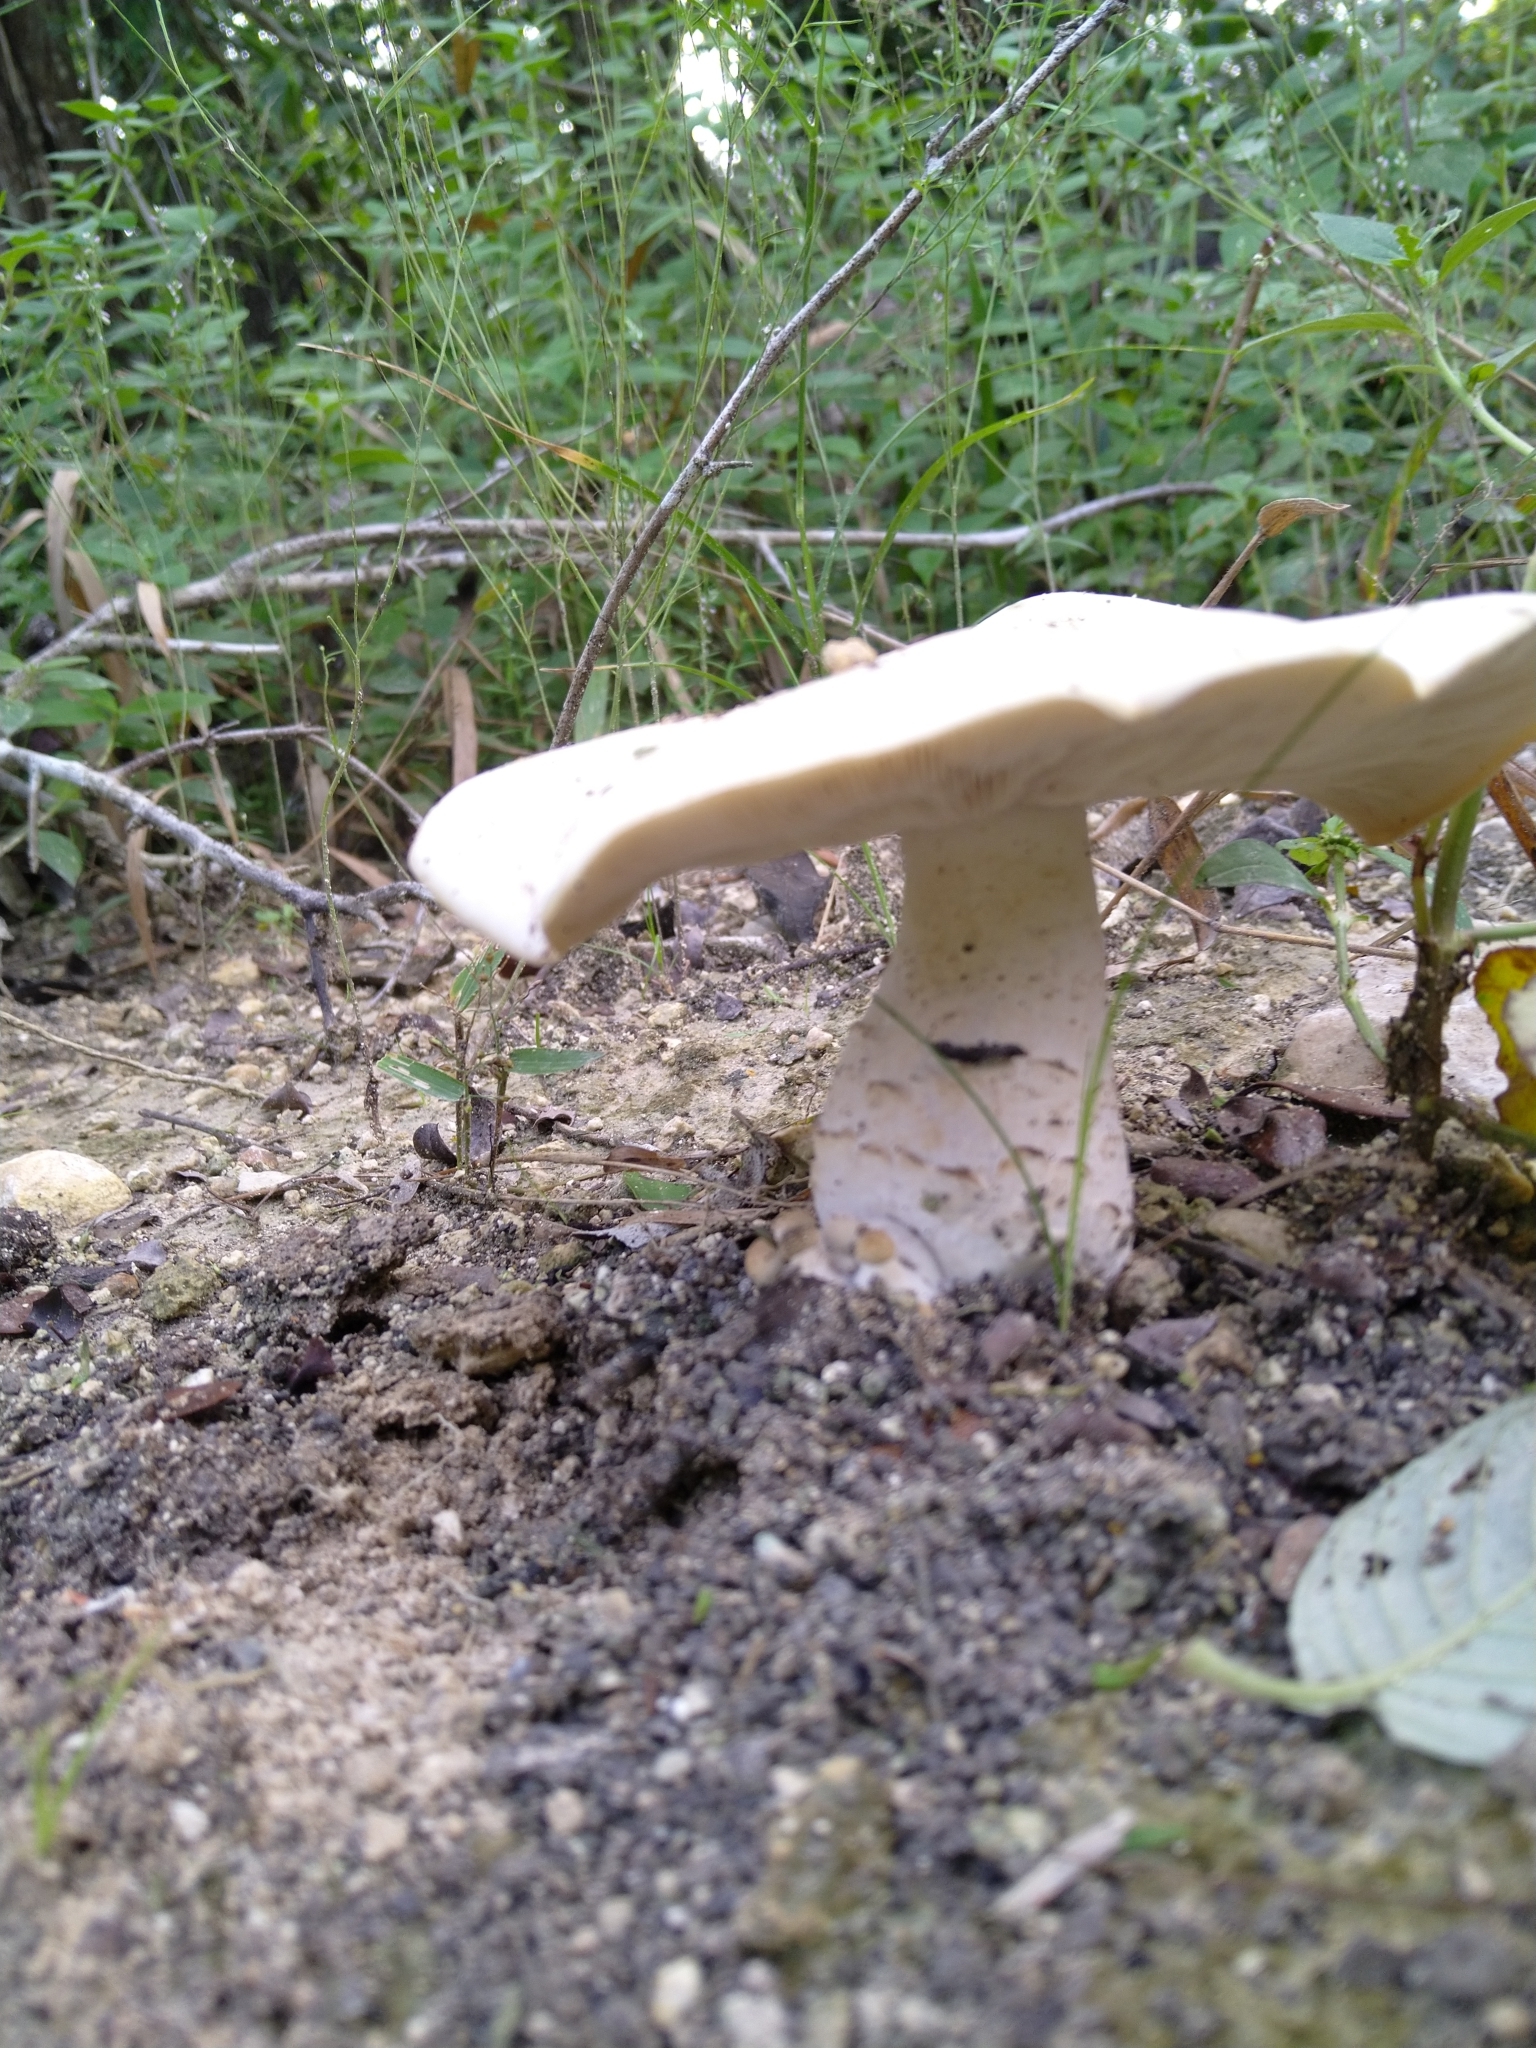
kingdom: Fungi
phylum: Basidiomycota
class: Agaricomycetes
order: Agaricales
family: Callistosporiaceae
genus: Macrocybe
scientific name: Macrocybe titans
